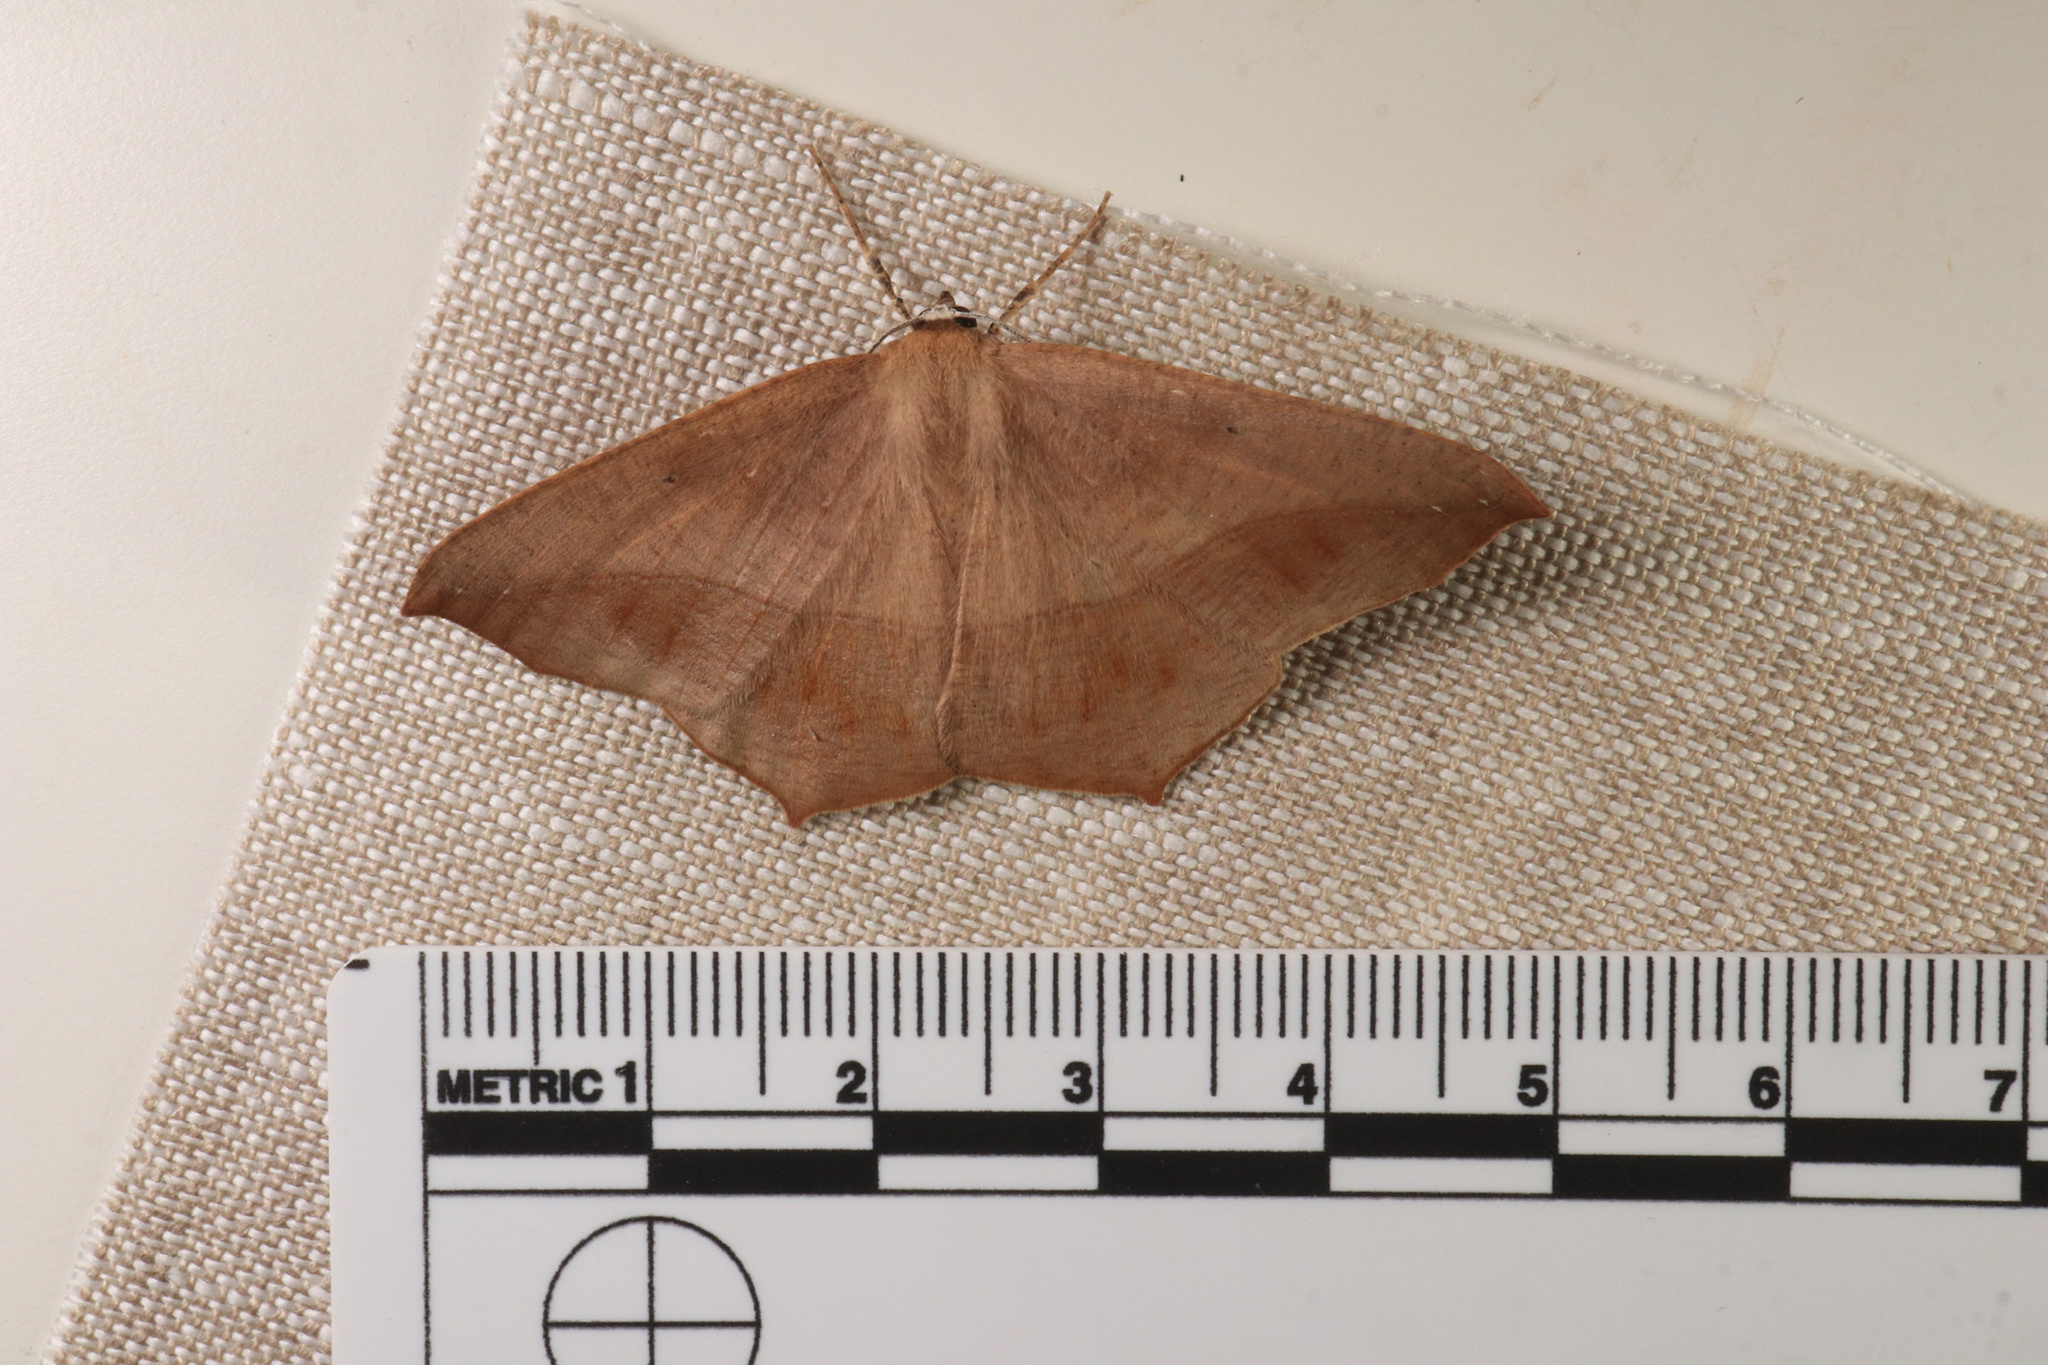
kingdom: Animalia
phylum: Arthropoda
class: Insecta
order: Lepidoptera
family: Geometridae
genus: Prochoerodes
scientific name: Prochoerodes lineola
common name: Large maple spanworm
